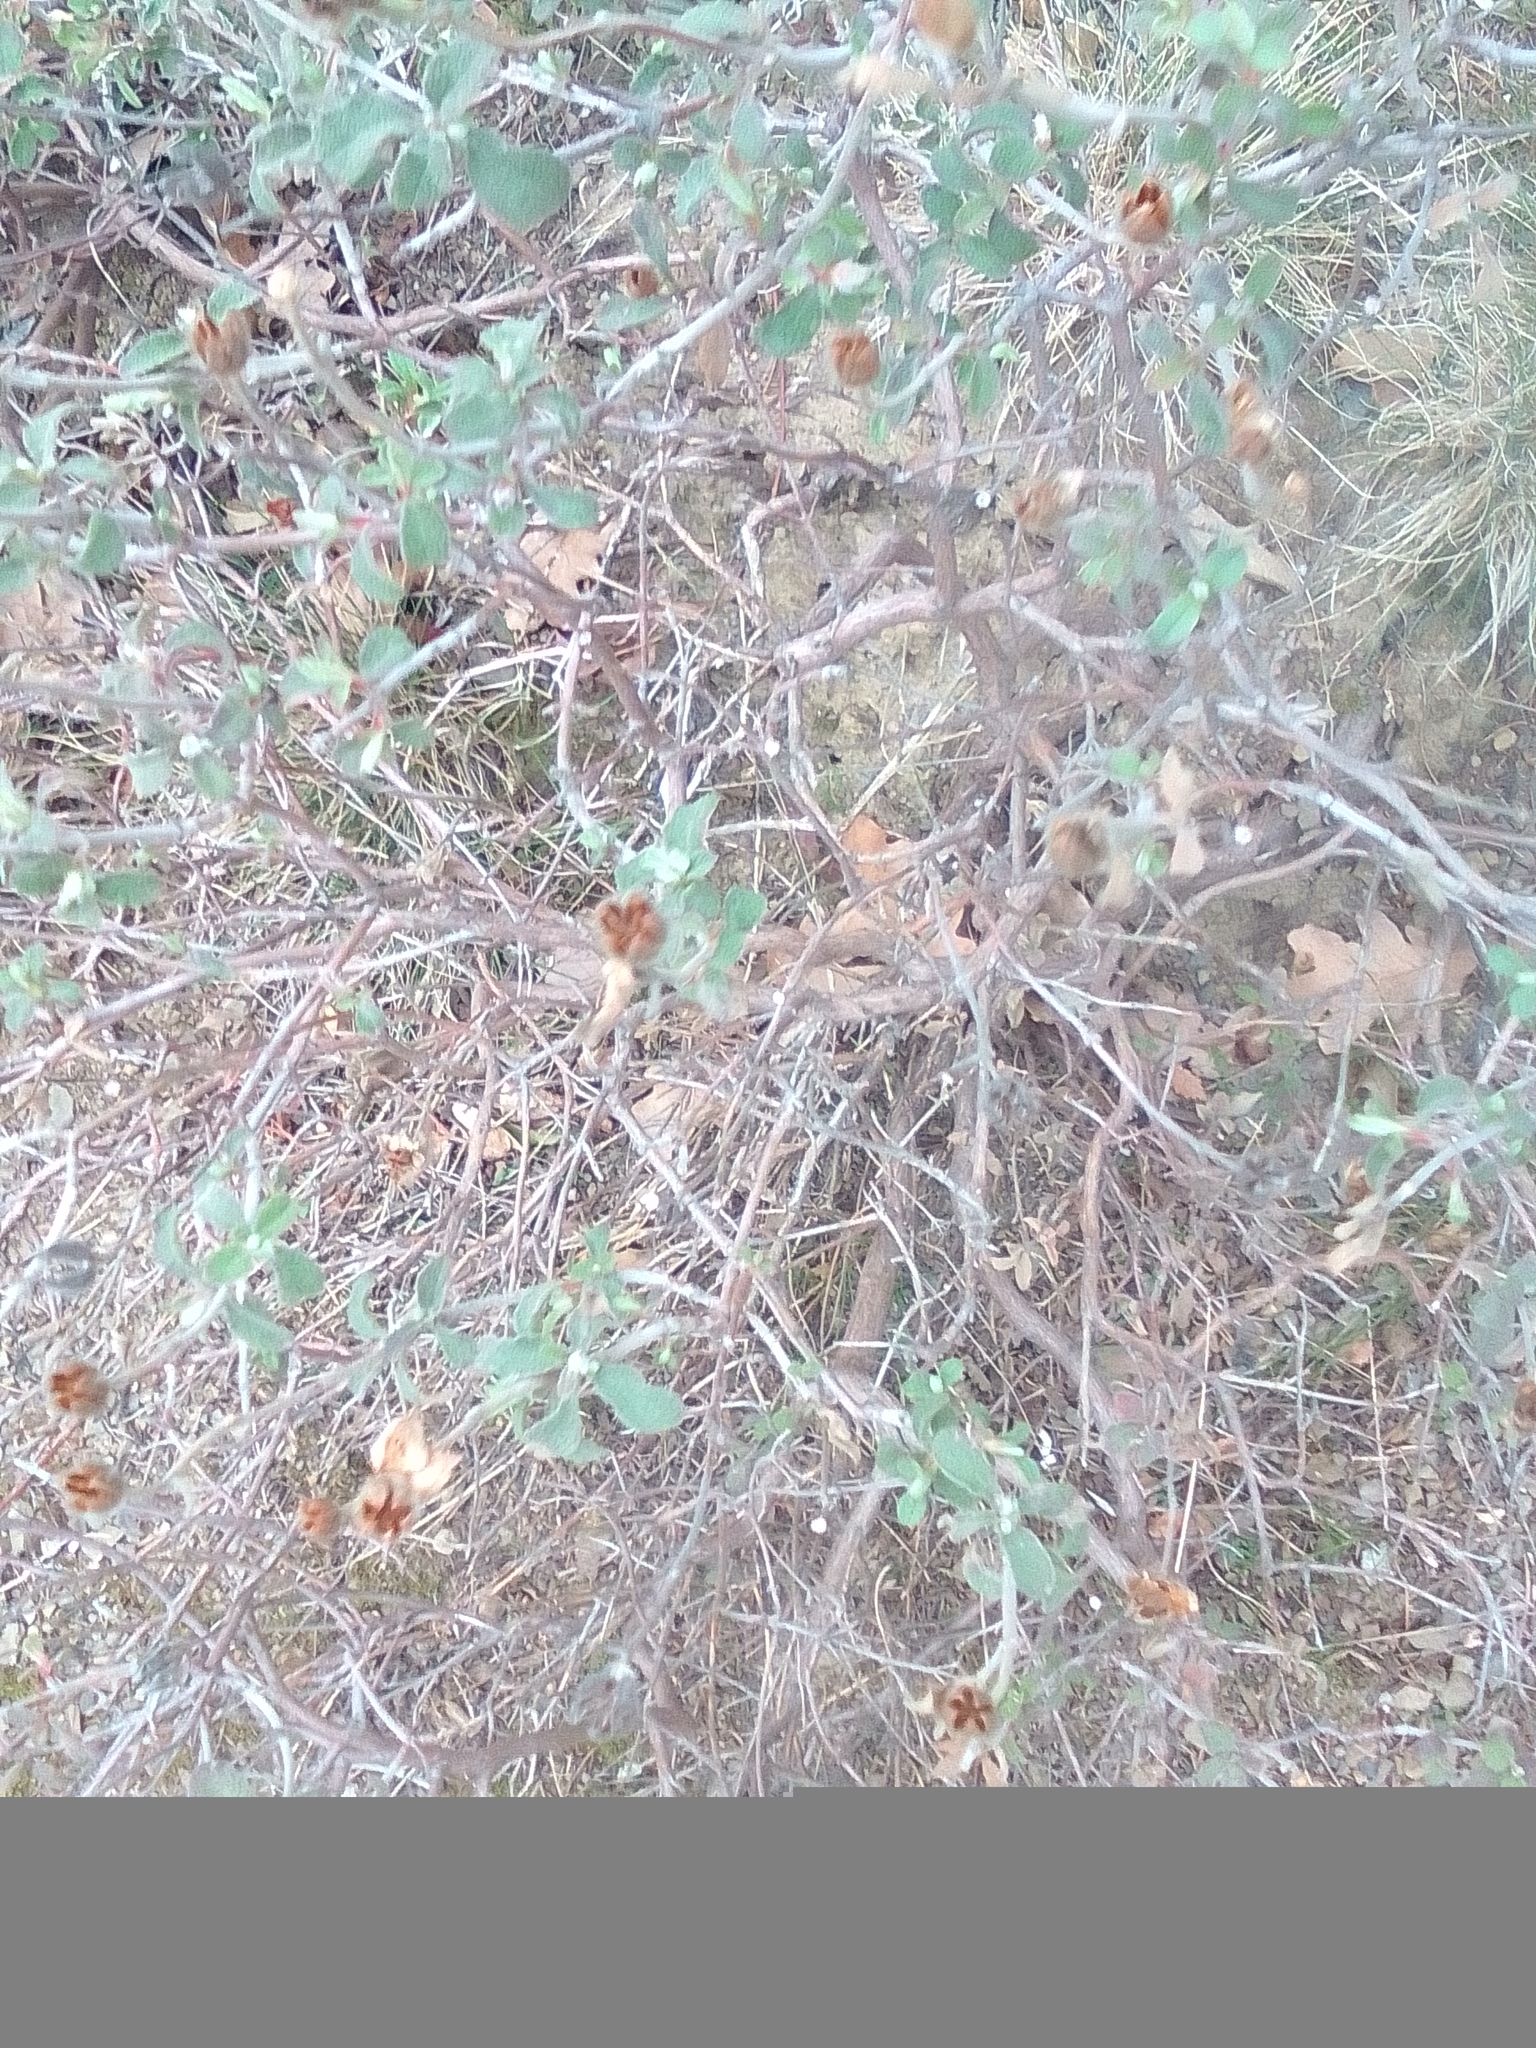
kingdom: Plantae
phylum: Tracheophyta
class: Magnoliopsida
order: Malvales
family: Cistaceae
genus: Cistus
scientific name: Cistus tauricus
